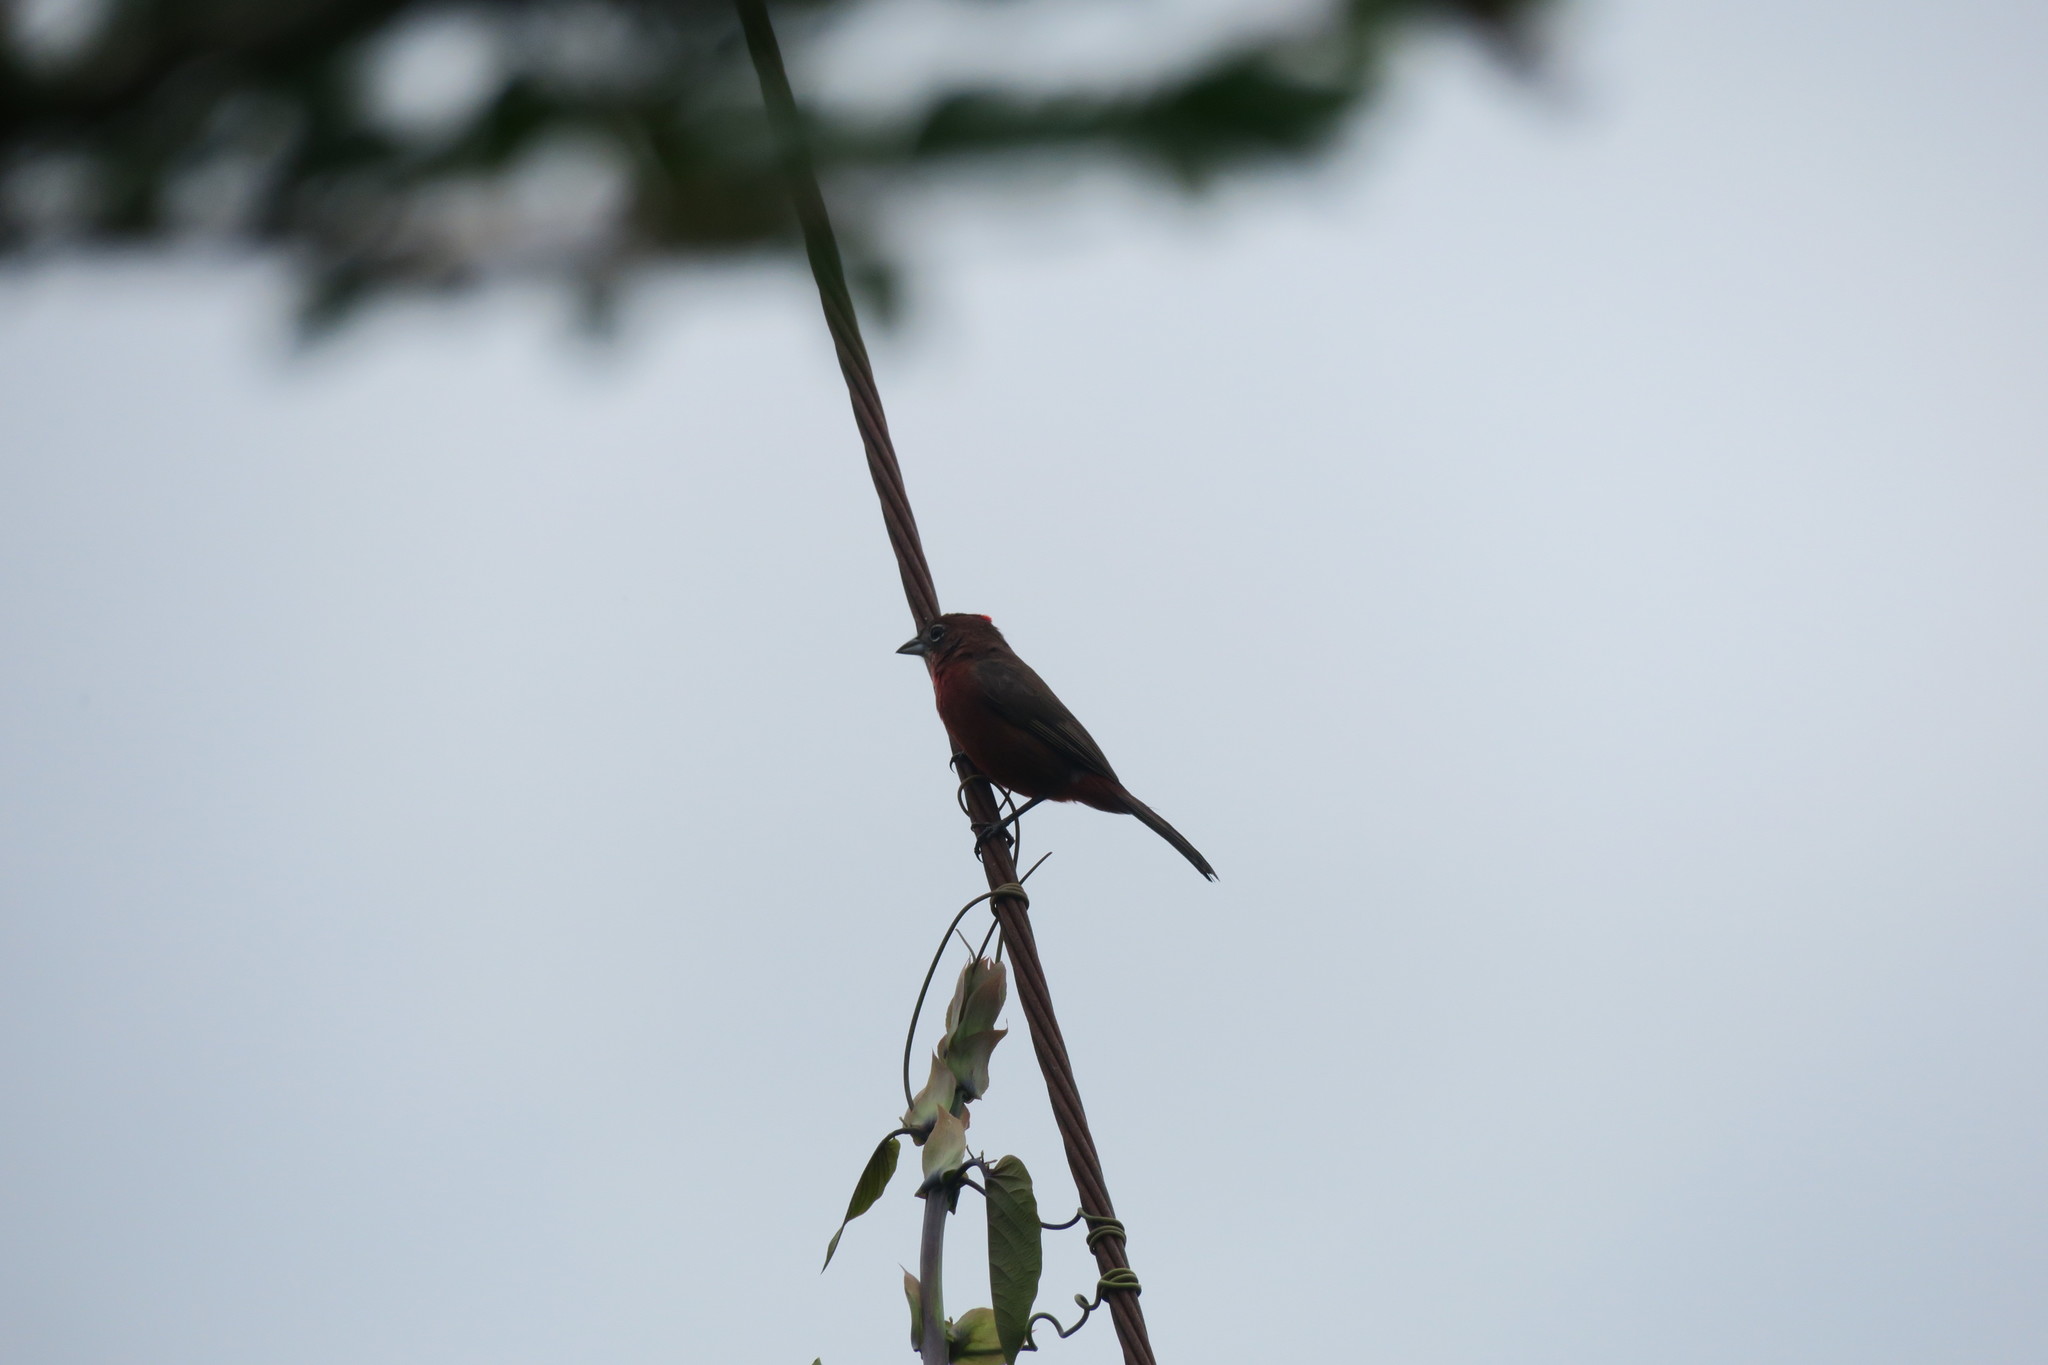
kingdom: Animalia
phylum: Chordata
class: Aves
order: Passeriformes
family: Thraupidae
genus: Coryphospingus
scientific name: Coryphospingus cucullatus
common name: Red pileated finch
